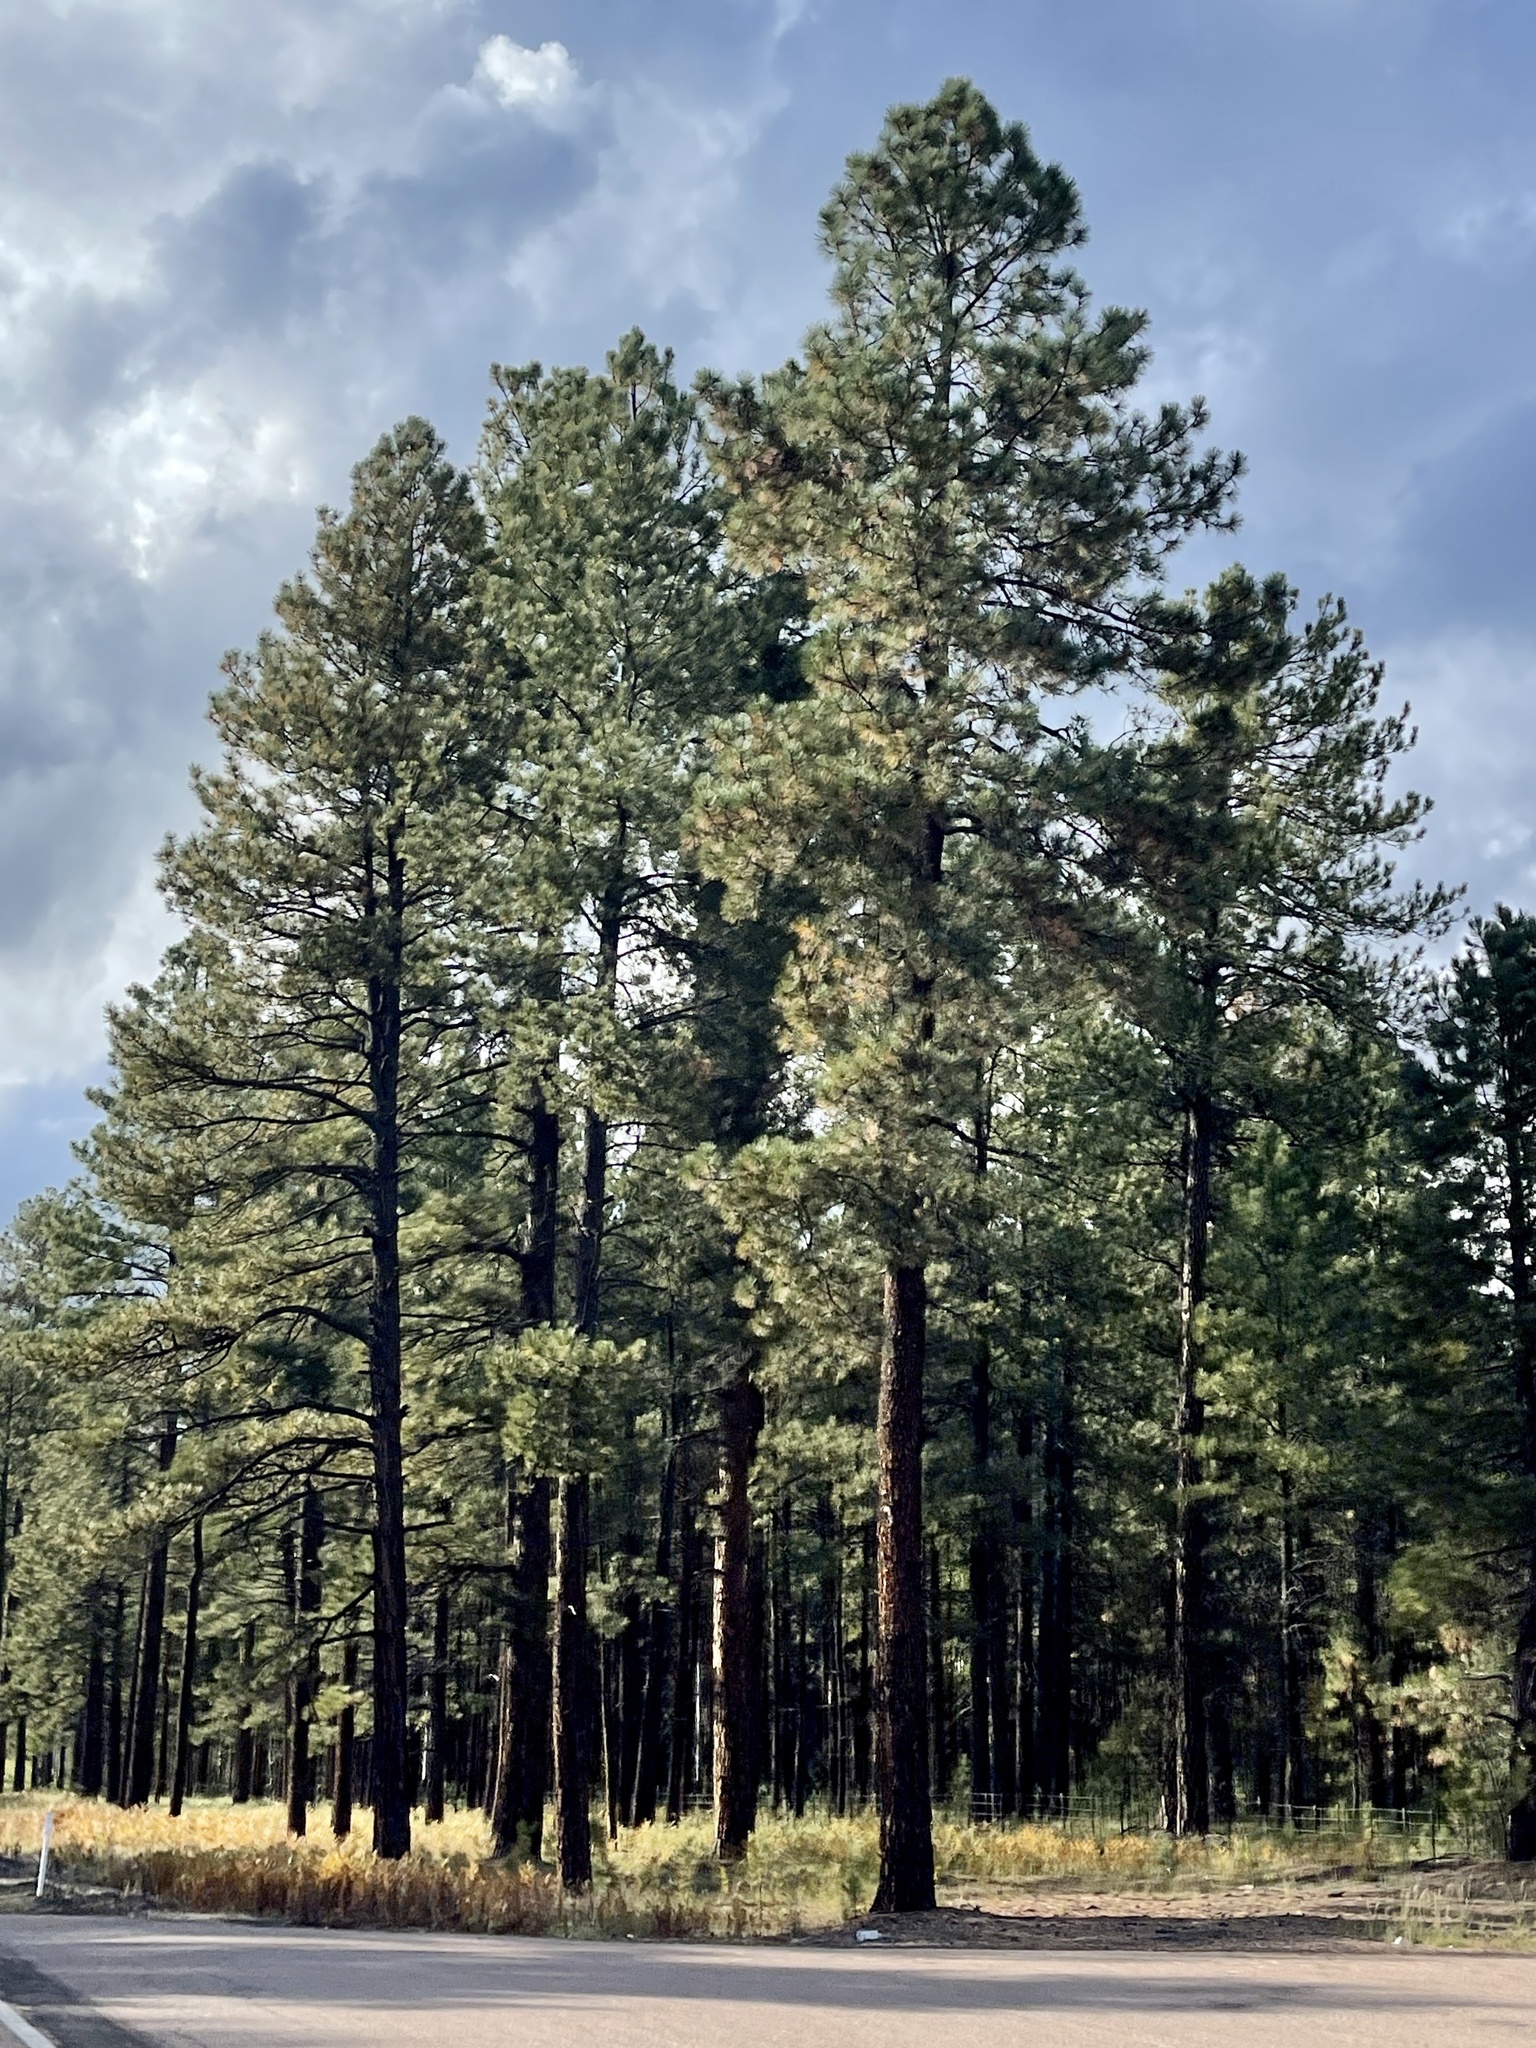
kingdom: Plantae
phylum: Tracheophyta
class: Pinopsida
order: Pinales
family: Pinaceae
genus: Pinus
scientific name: Pinus ponderosa
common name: Western yellow-pine
